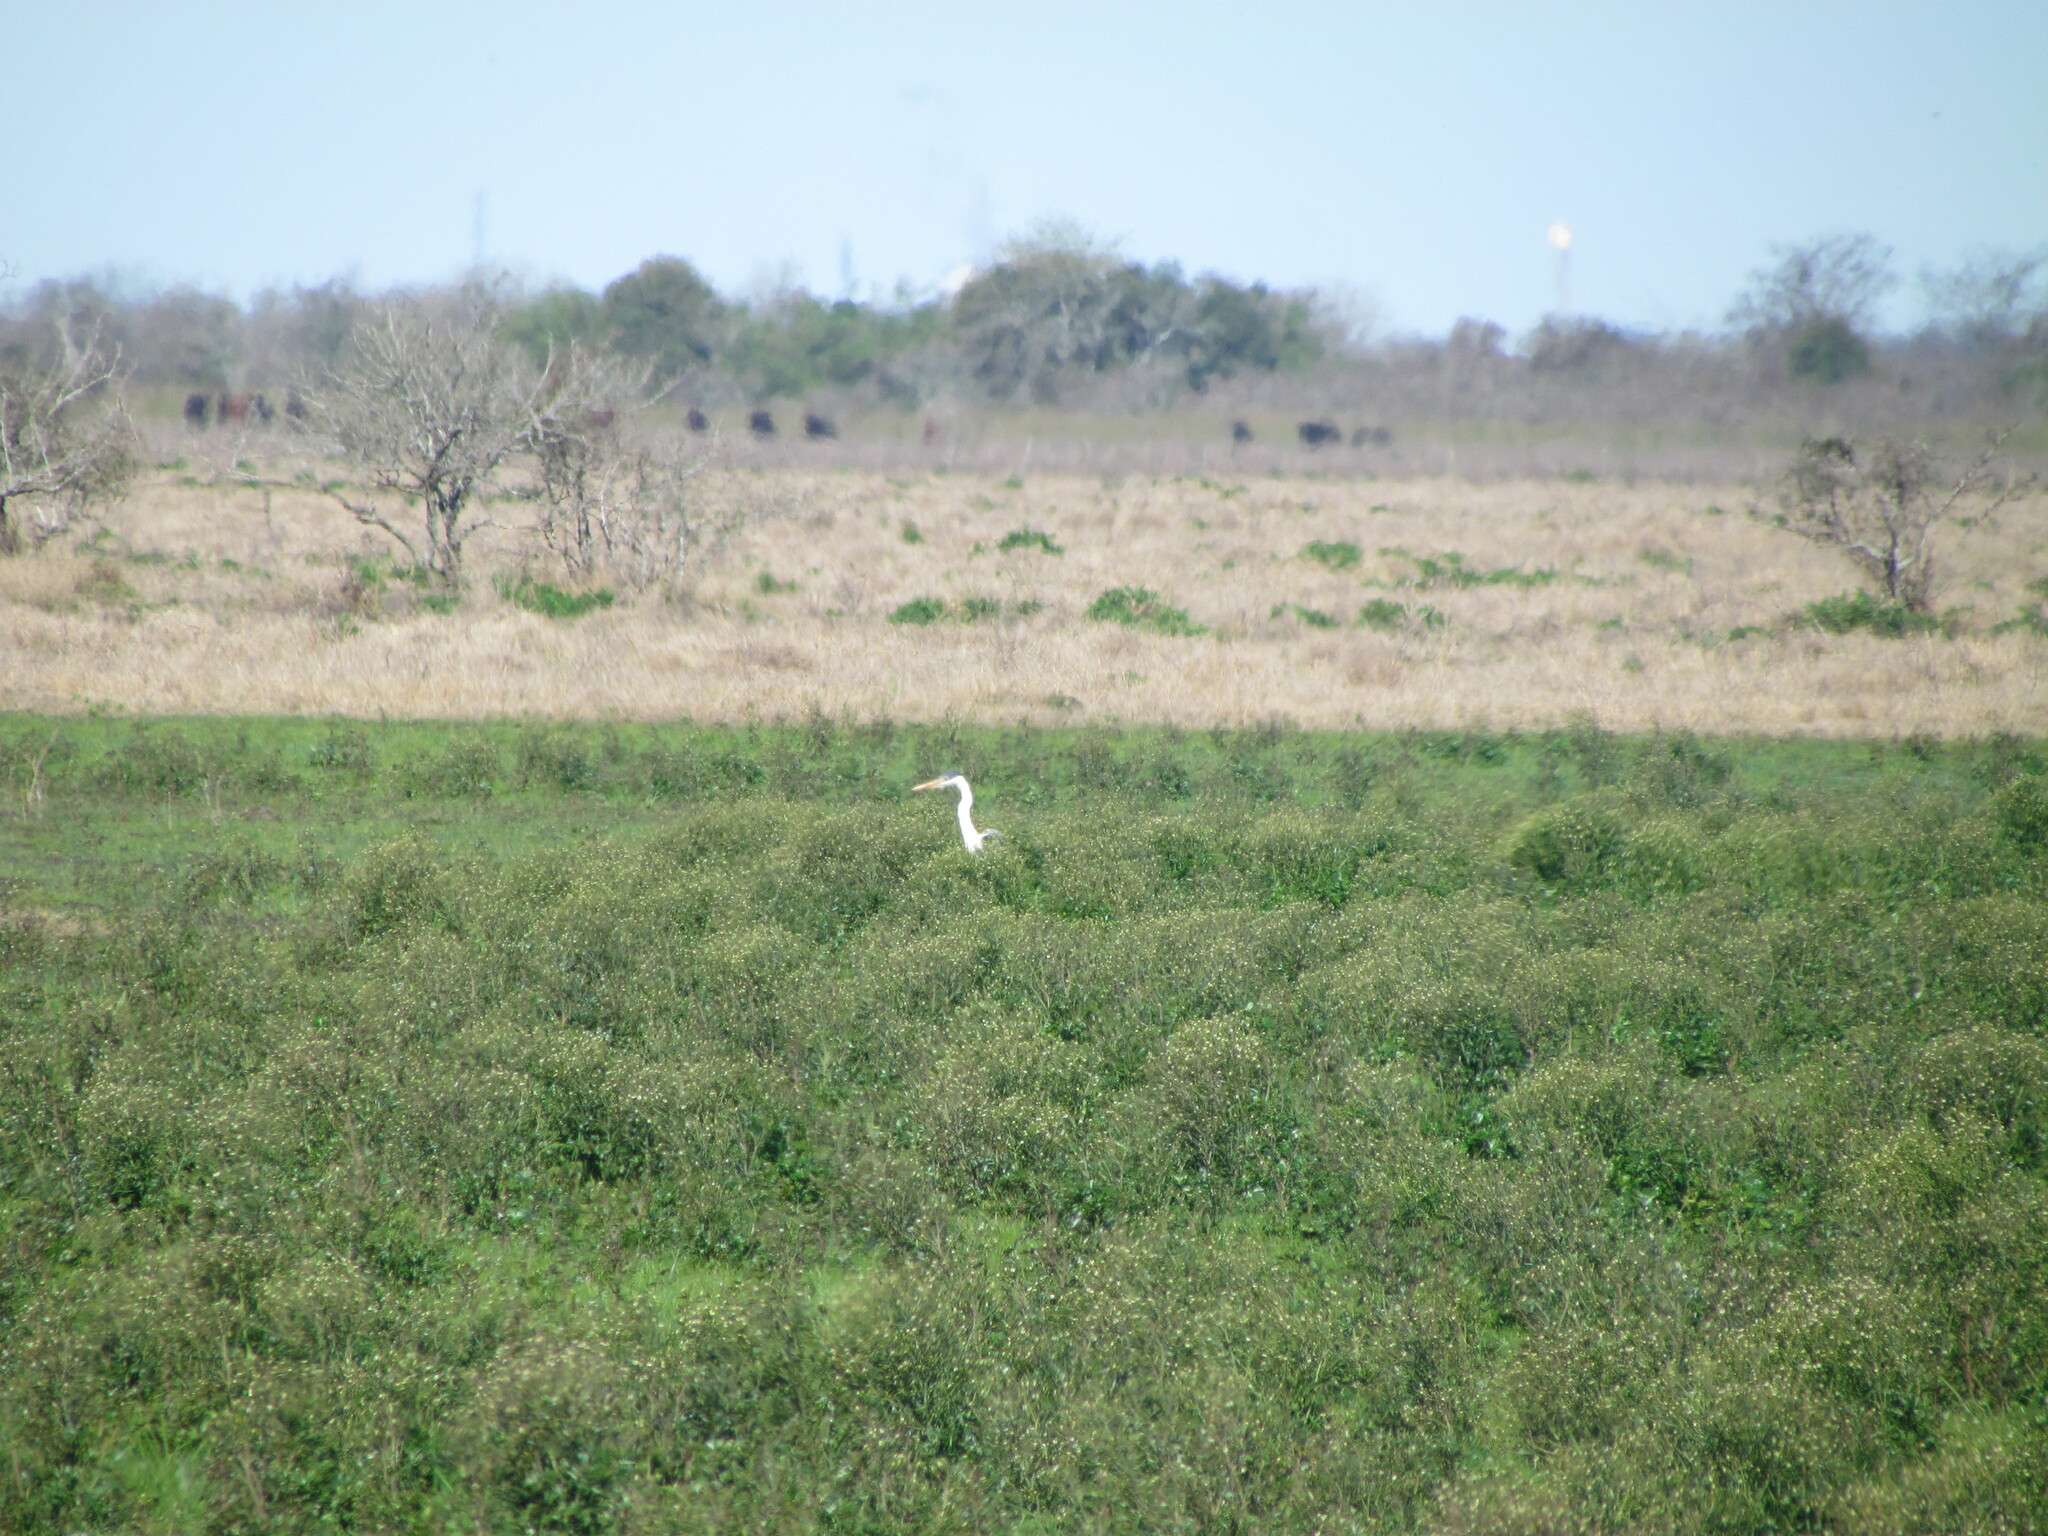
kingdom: Animalia
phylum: Chordata
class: Aves
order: Pelecaniformes
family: Ardeidae
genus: Ardea
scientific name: Ardea cocoi
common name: Cocoi heron
